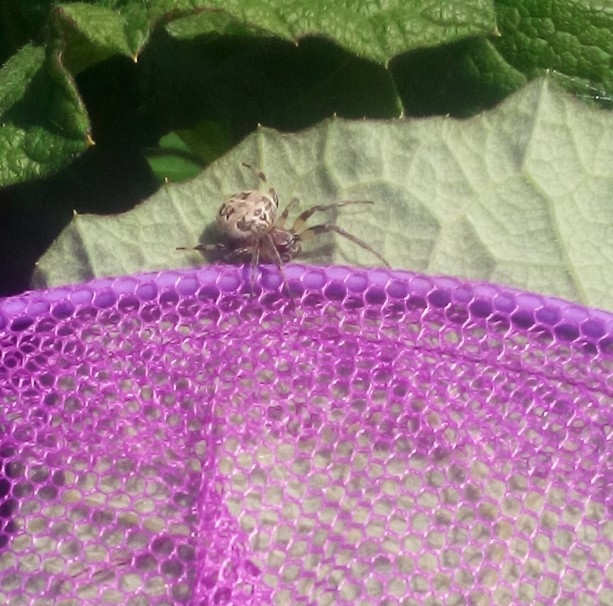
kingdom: Animalia
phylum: Arthropoda
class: Arachnida
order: Araneae
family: Araneidae
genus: Larinioides
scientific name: Larinioides
